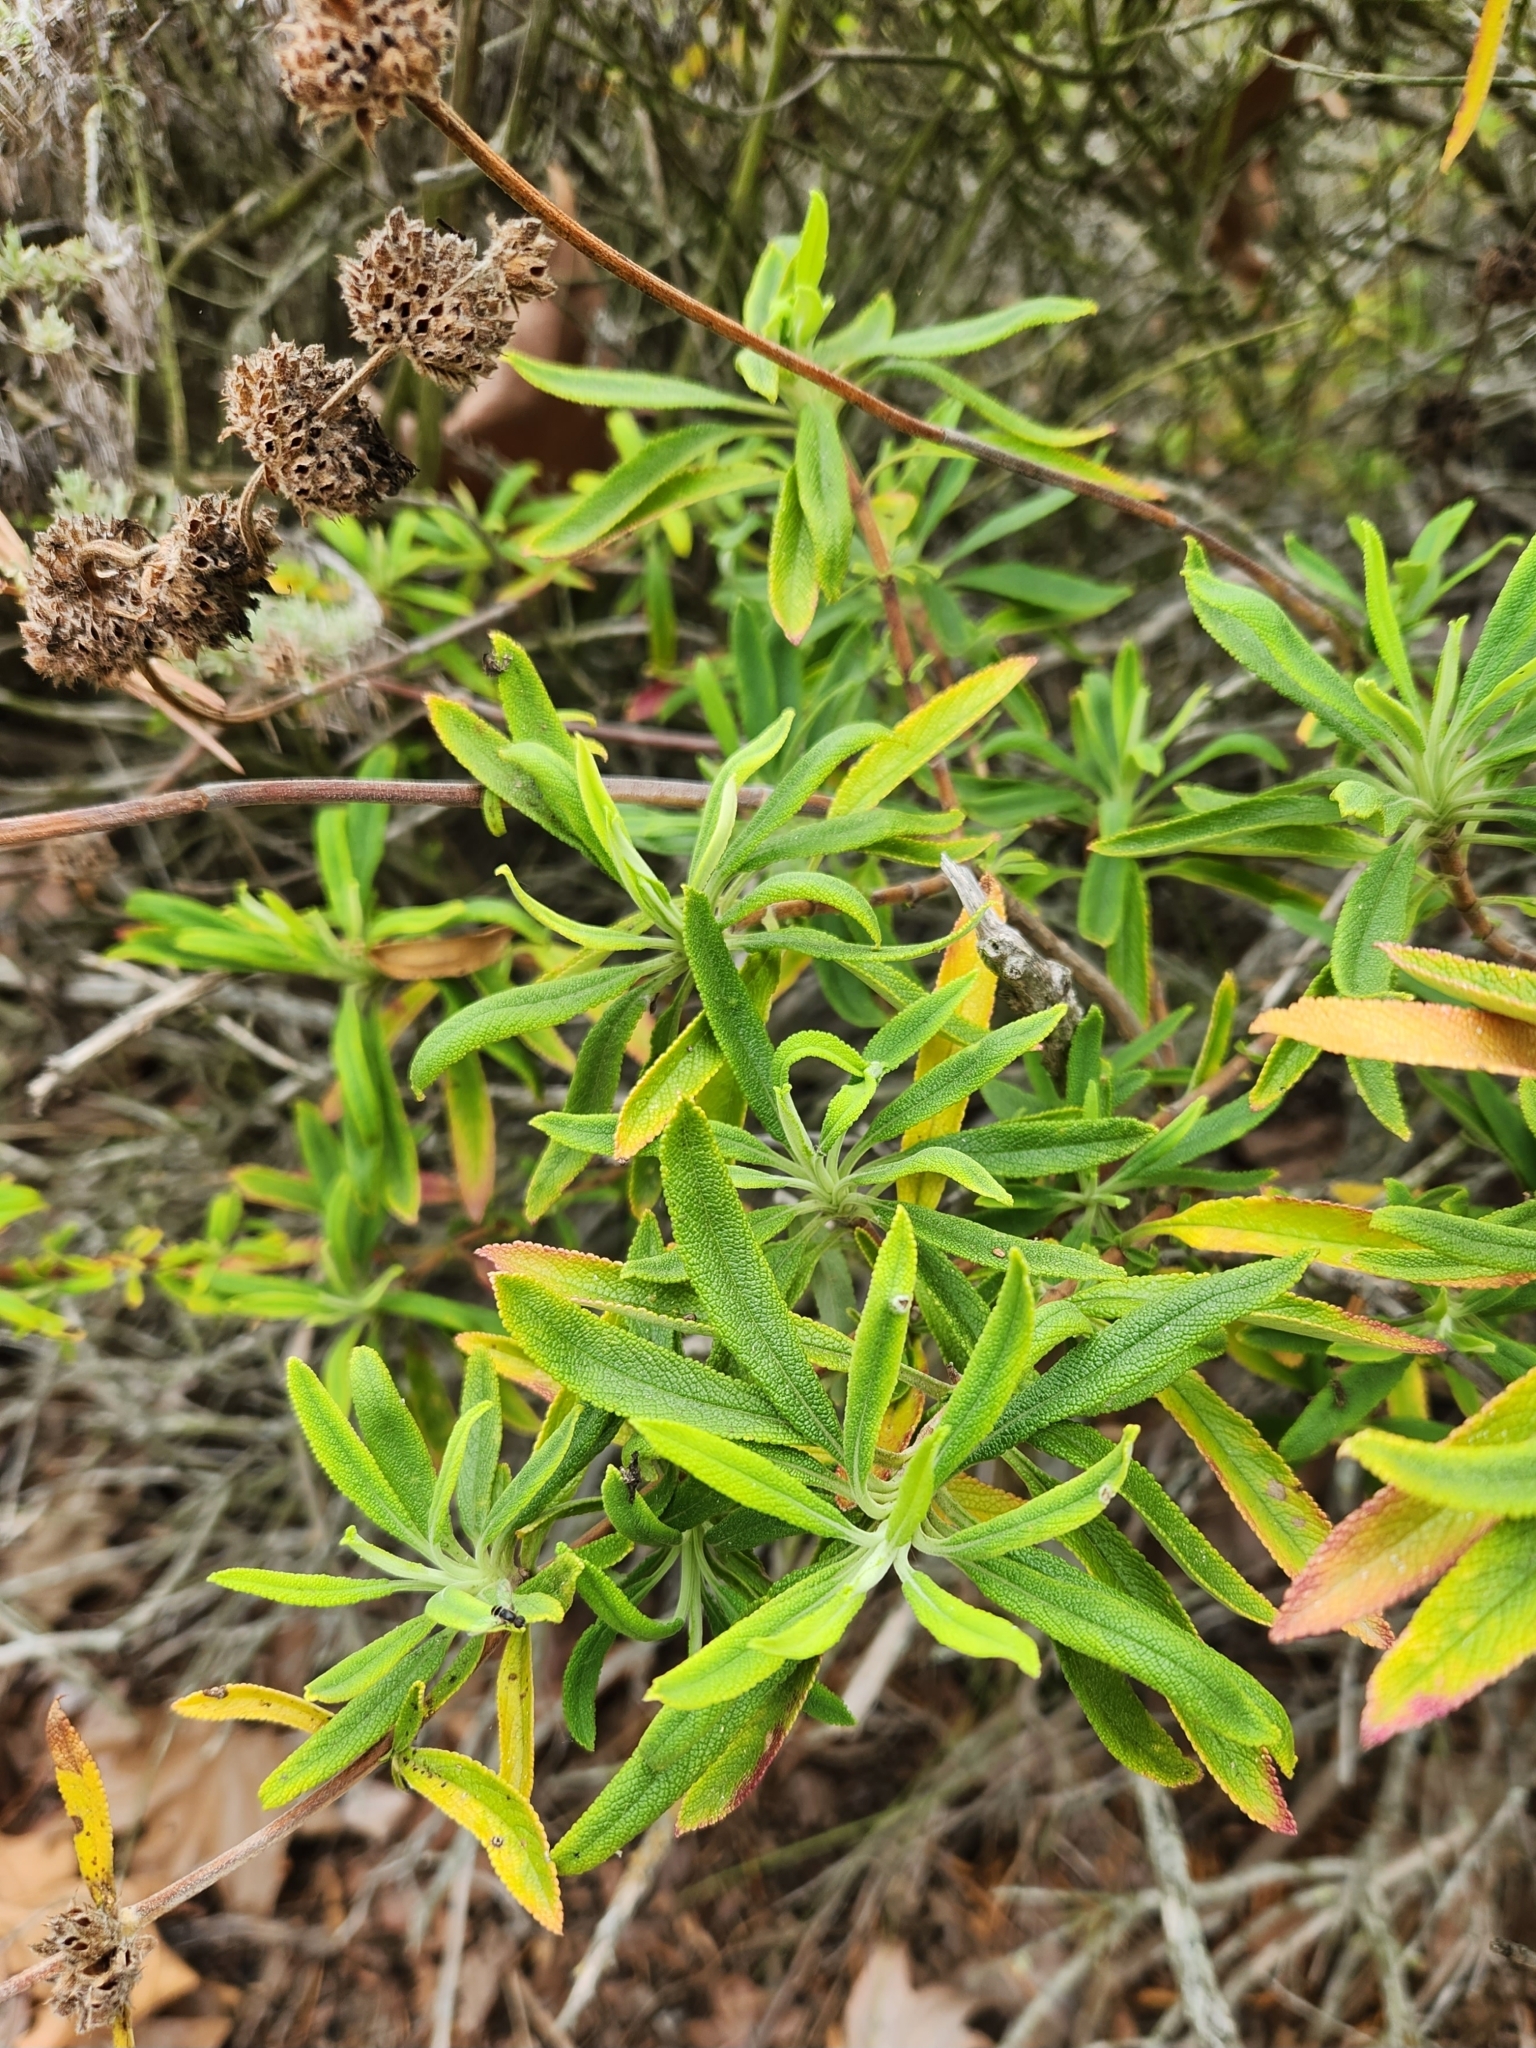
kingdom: Plantae
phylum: Tracheophyta
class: Magnoliopsida
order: Lamiales
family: Lamiaceae
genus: Salvia
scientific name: Salvia mellifera
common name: Black sage
